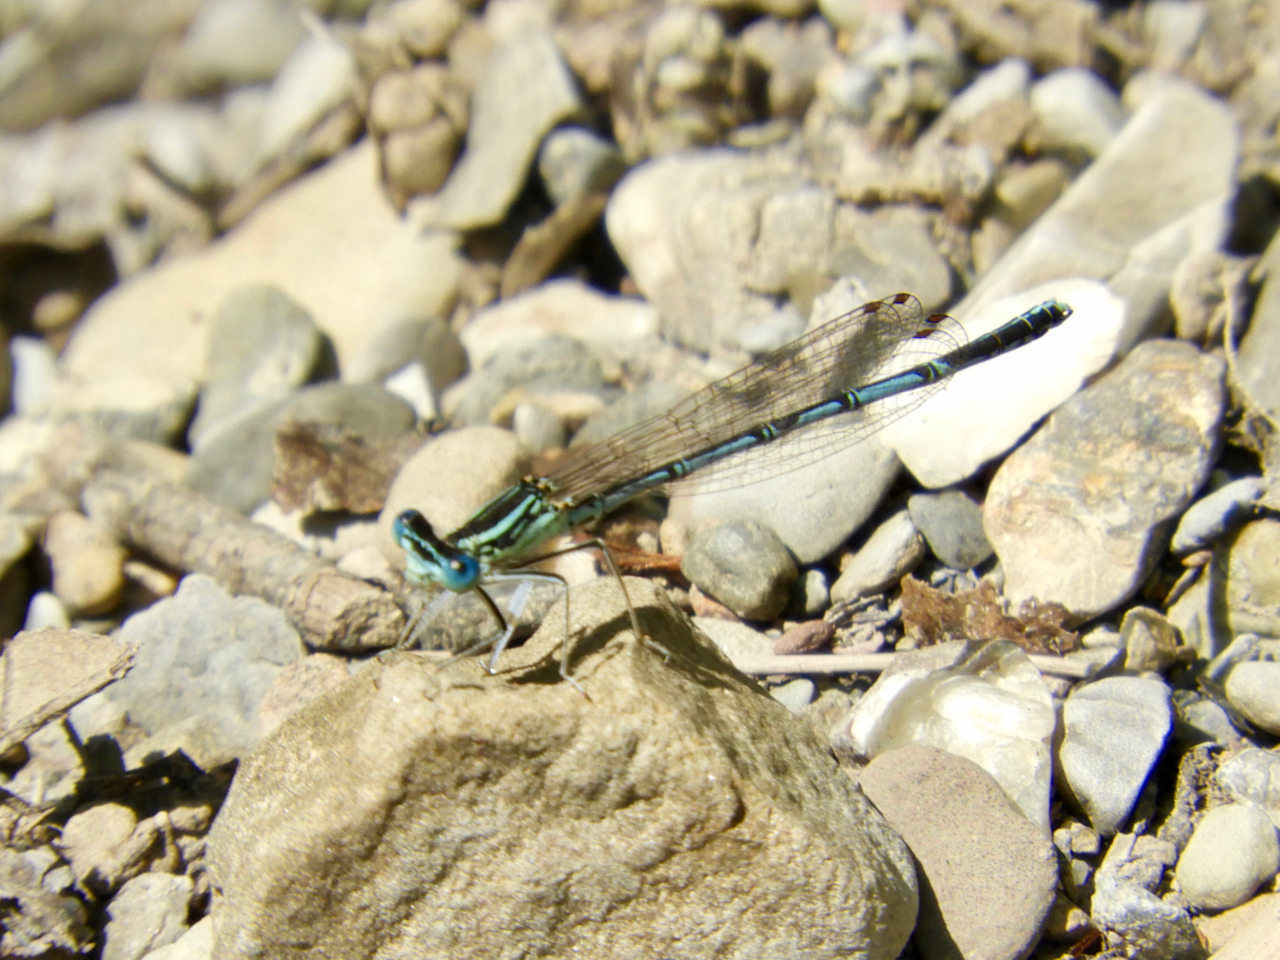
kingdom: Animalia
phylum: Arthropoda
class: Insecta
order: Odonata
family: Platycnemididae
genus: Platycnemis
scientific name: Platycnemis pennipes
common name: White-legged damselfly
